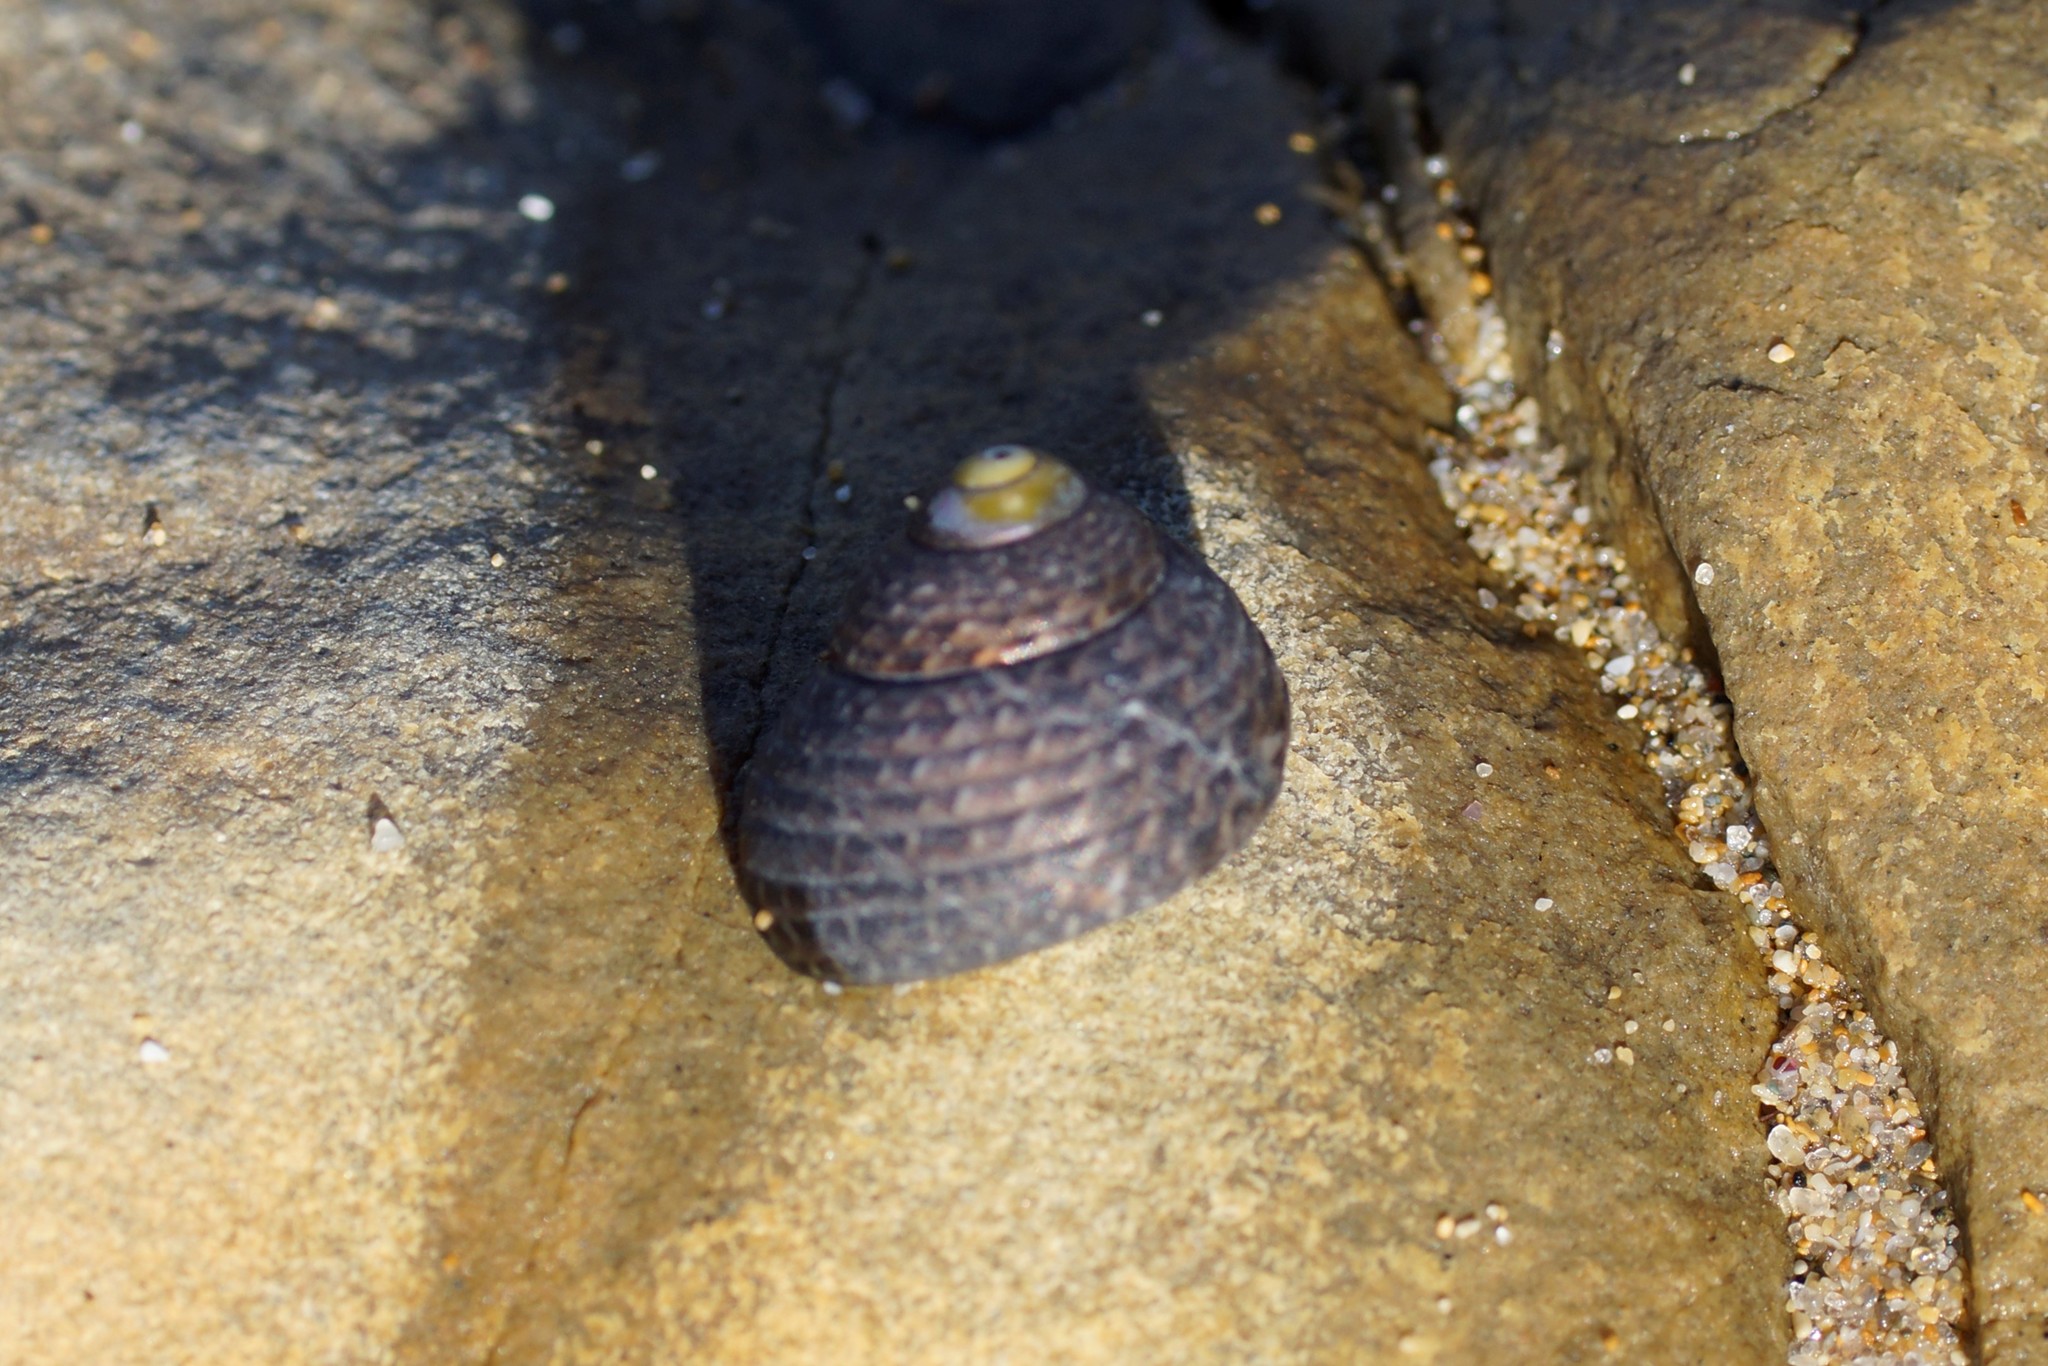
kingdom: Animalia
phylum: Mollusca
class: Gastropoda
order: Trochida
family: Trochidae
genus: Chlorodiloma
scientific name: Chlorodiloma adelaidae
